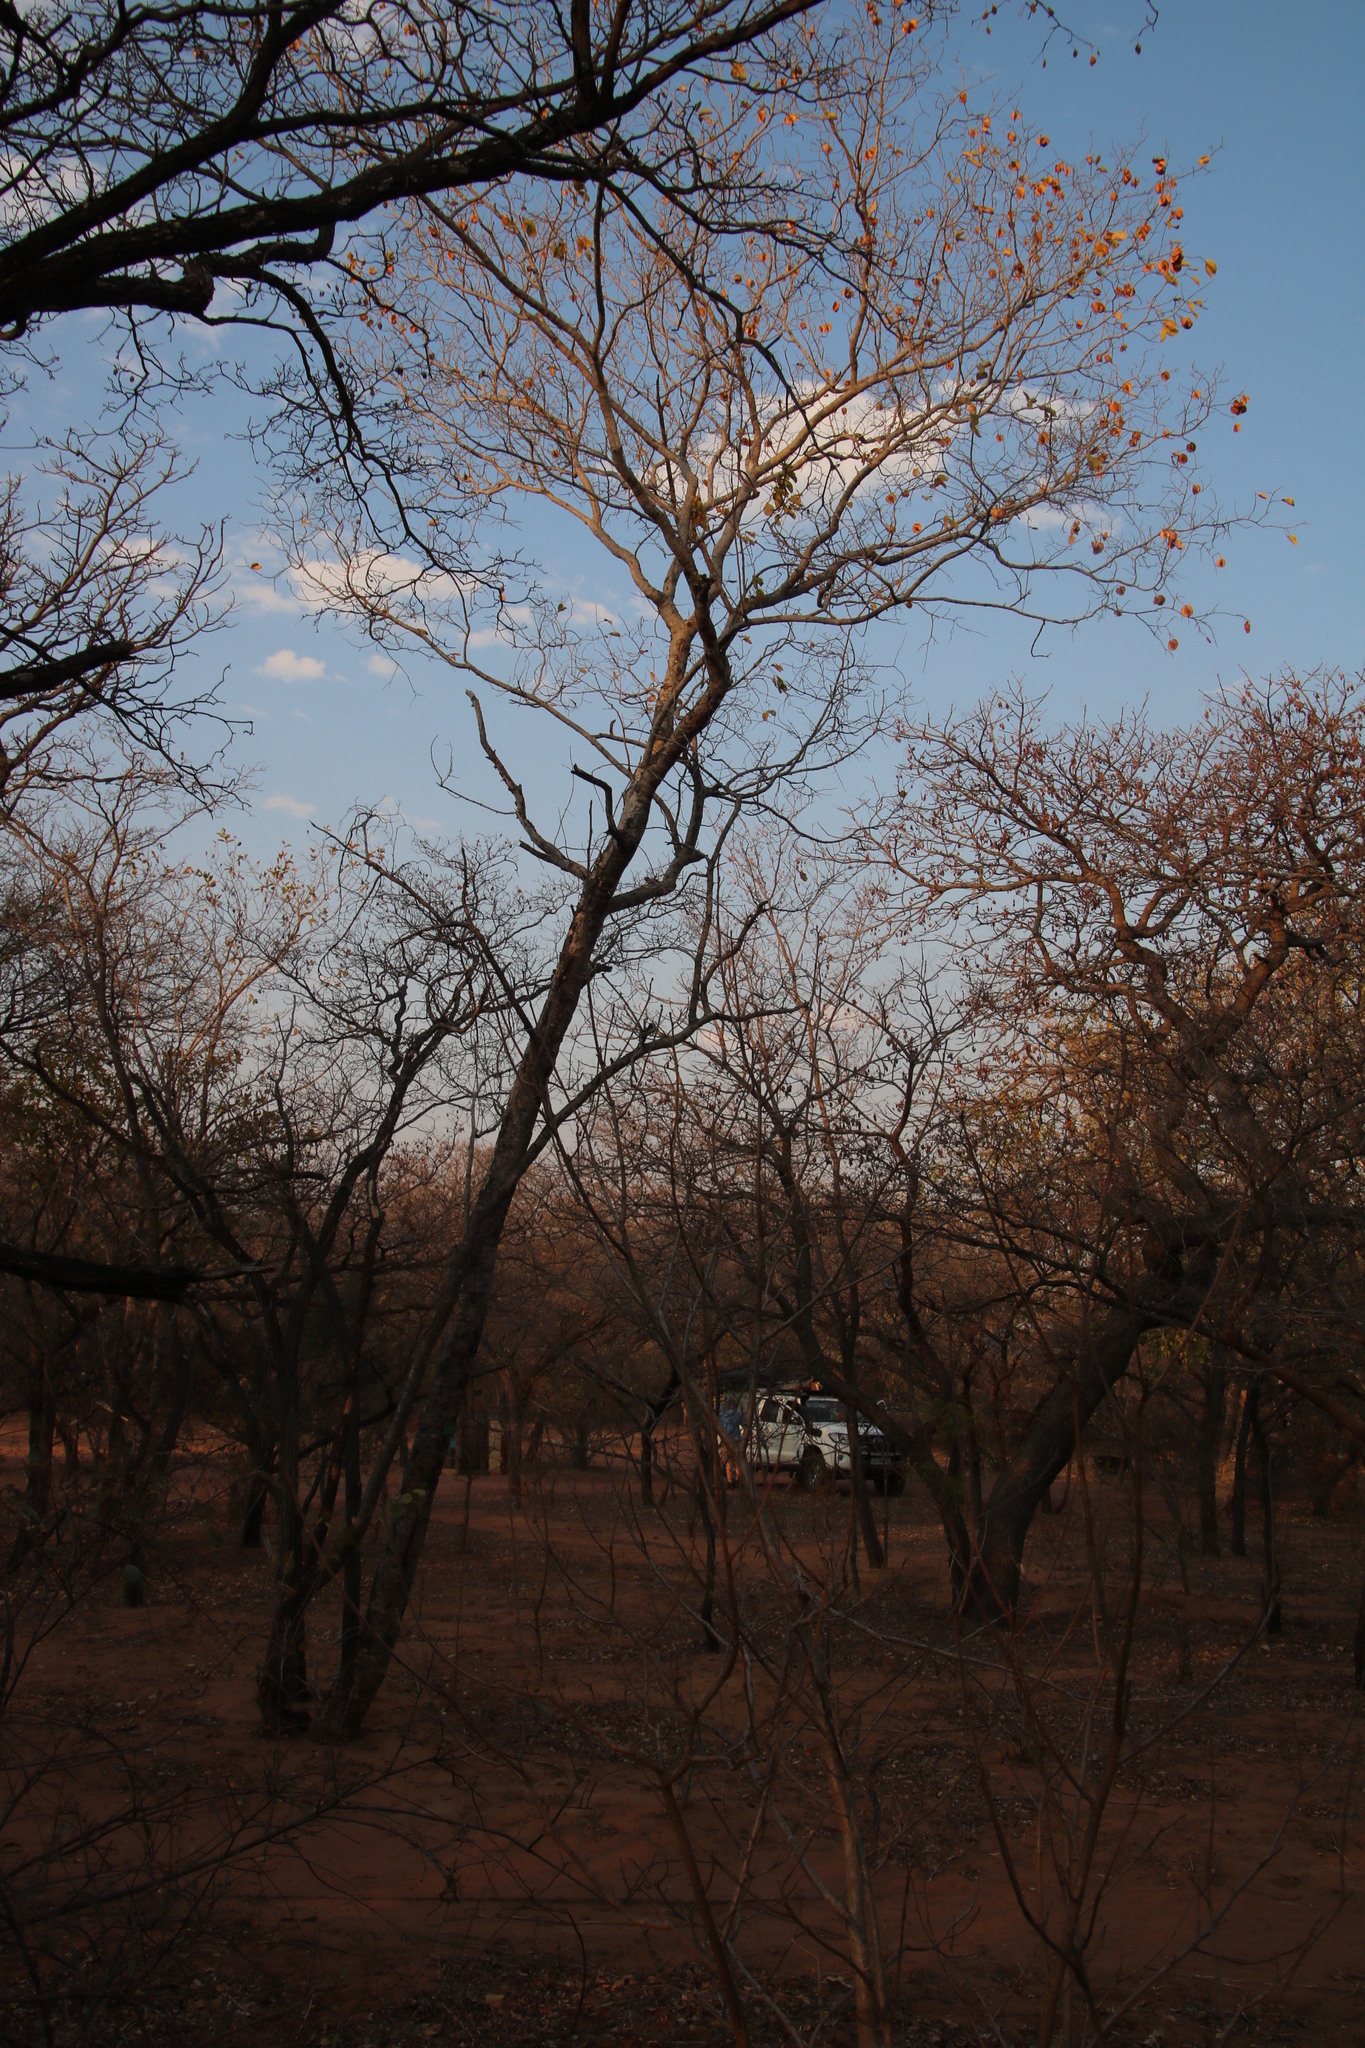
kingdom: Plantae
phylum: Tracheophyta
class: Magnoliopsida
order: Myrtales
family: Combretaceae
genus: Combretum
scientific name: Combretum zeyheri
